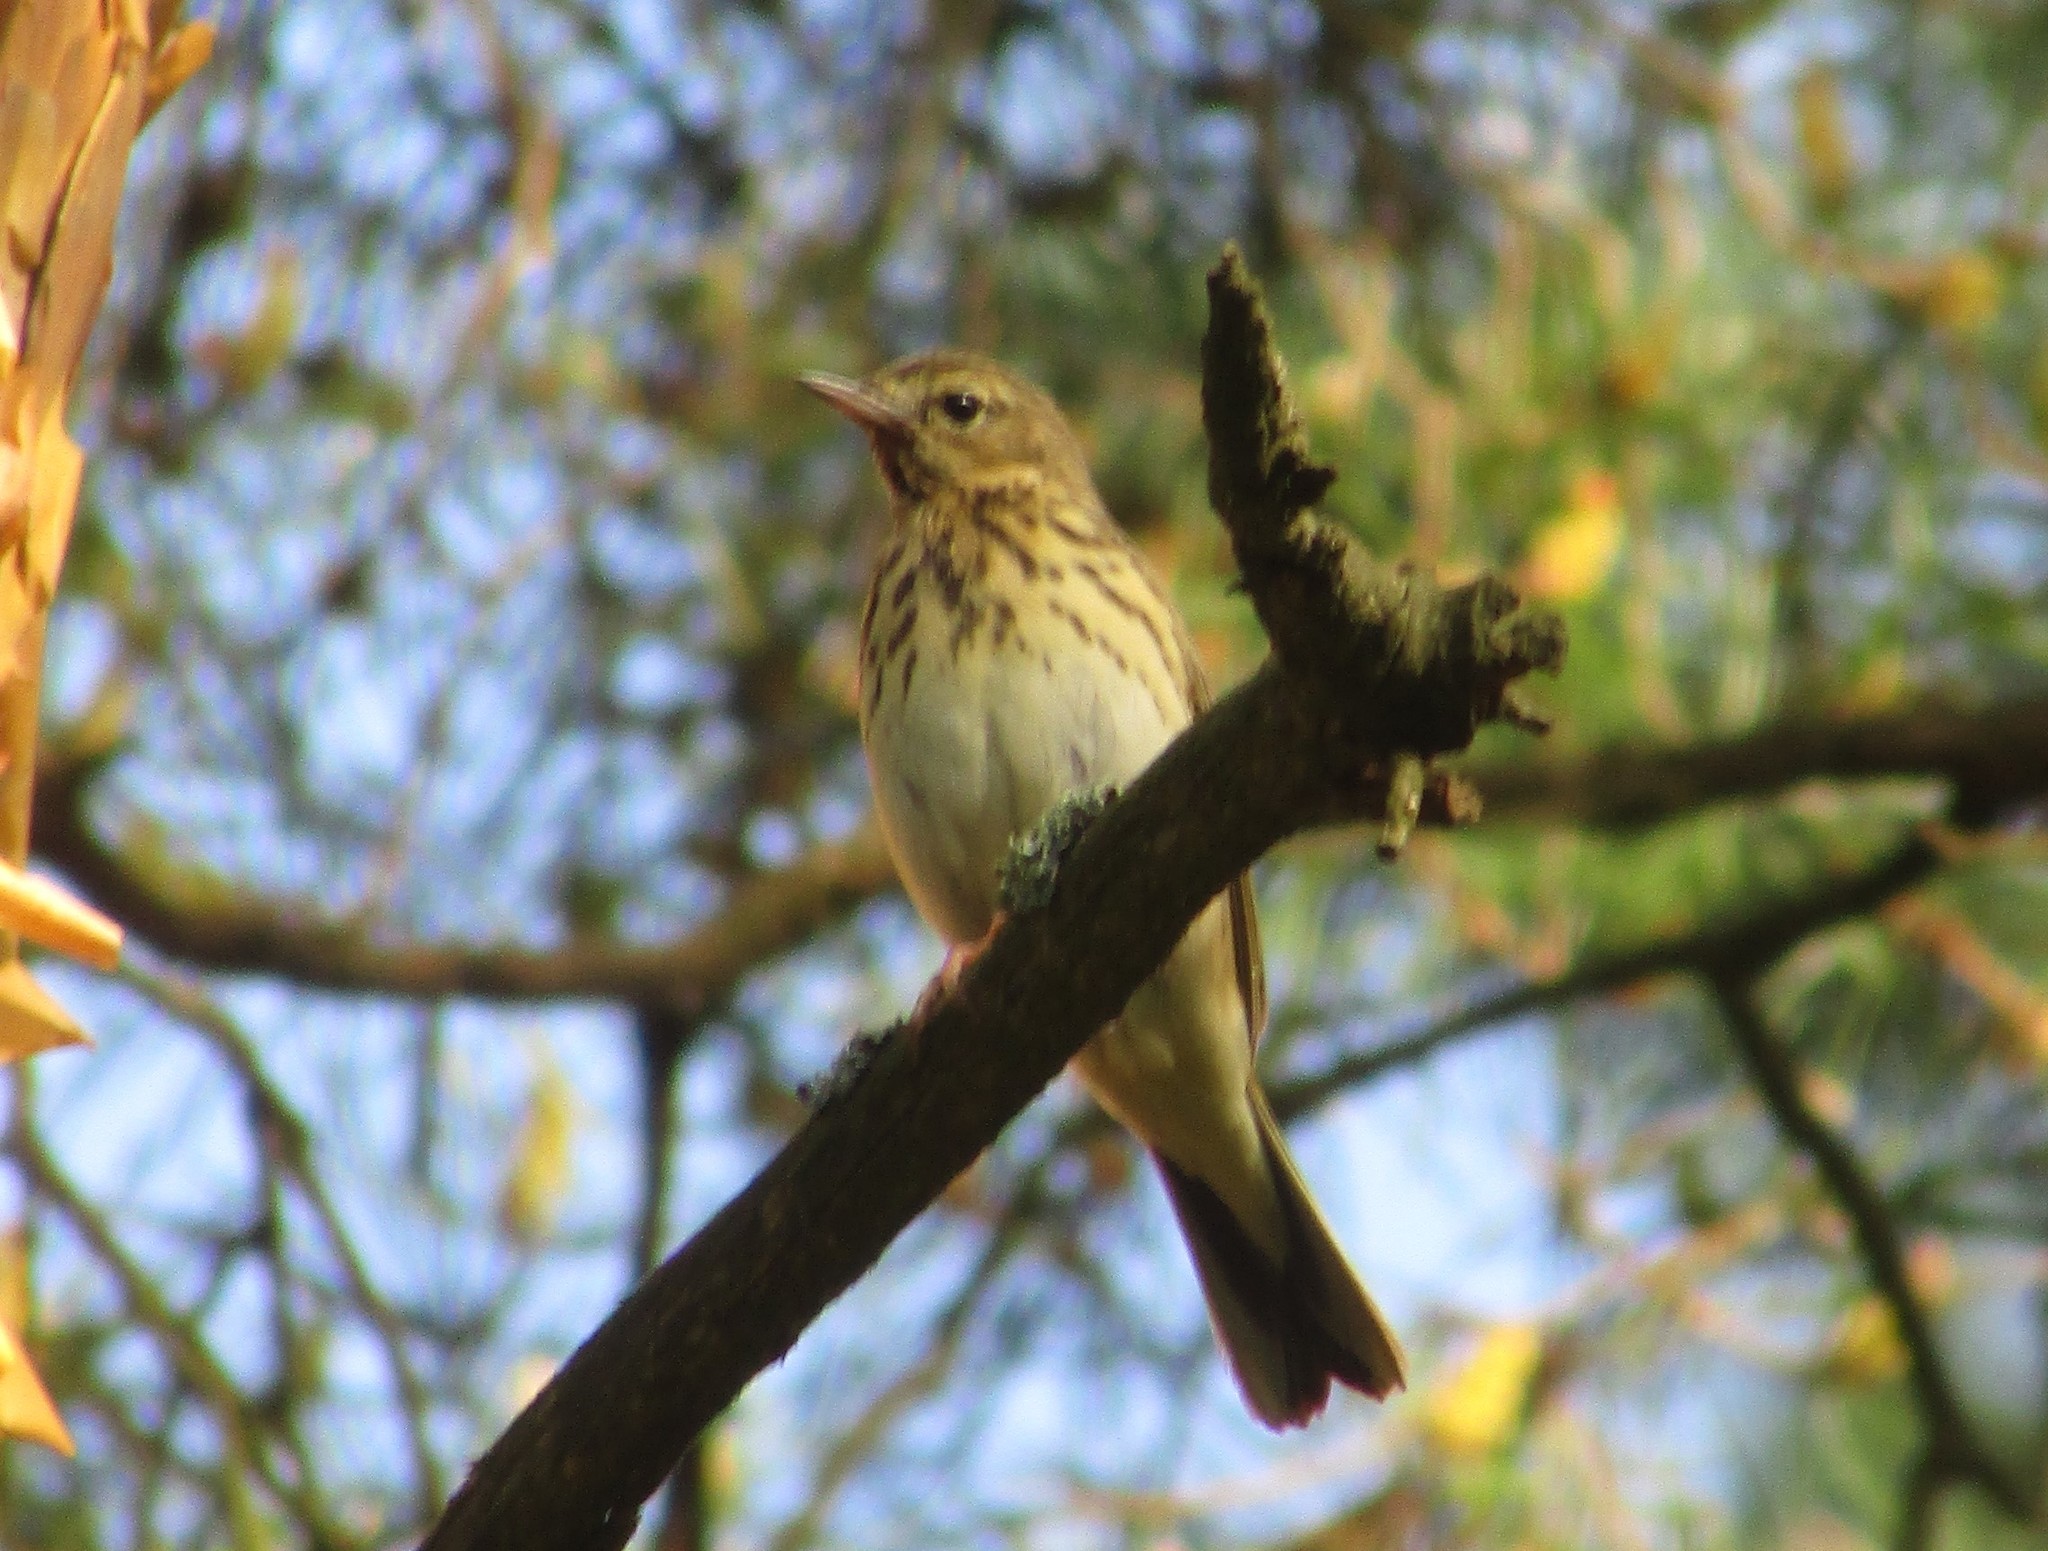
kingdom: Animalia
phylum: Chordata
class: Aves
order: Passeriformes
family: Motacillidae
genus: Anthus
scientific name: Anthus trivialis
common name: Tree pipit
